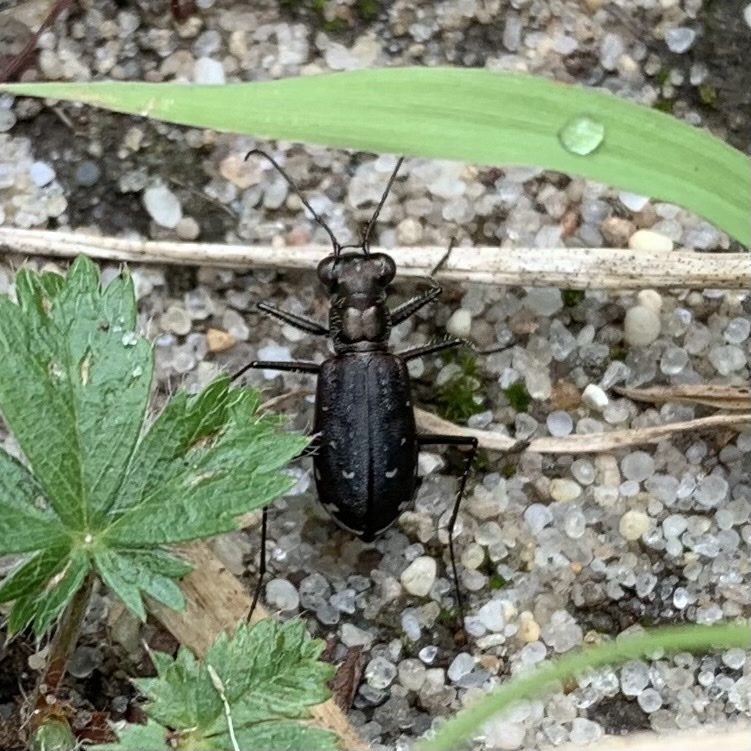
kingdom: Animalia
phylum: Arthropoda
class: Insecta
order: Coleoptera
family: Carabidae
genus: Cicindela
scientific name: Cicindela punctulata
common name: Punctured tiger beetle
